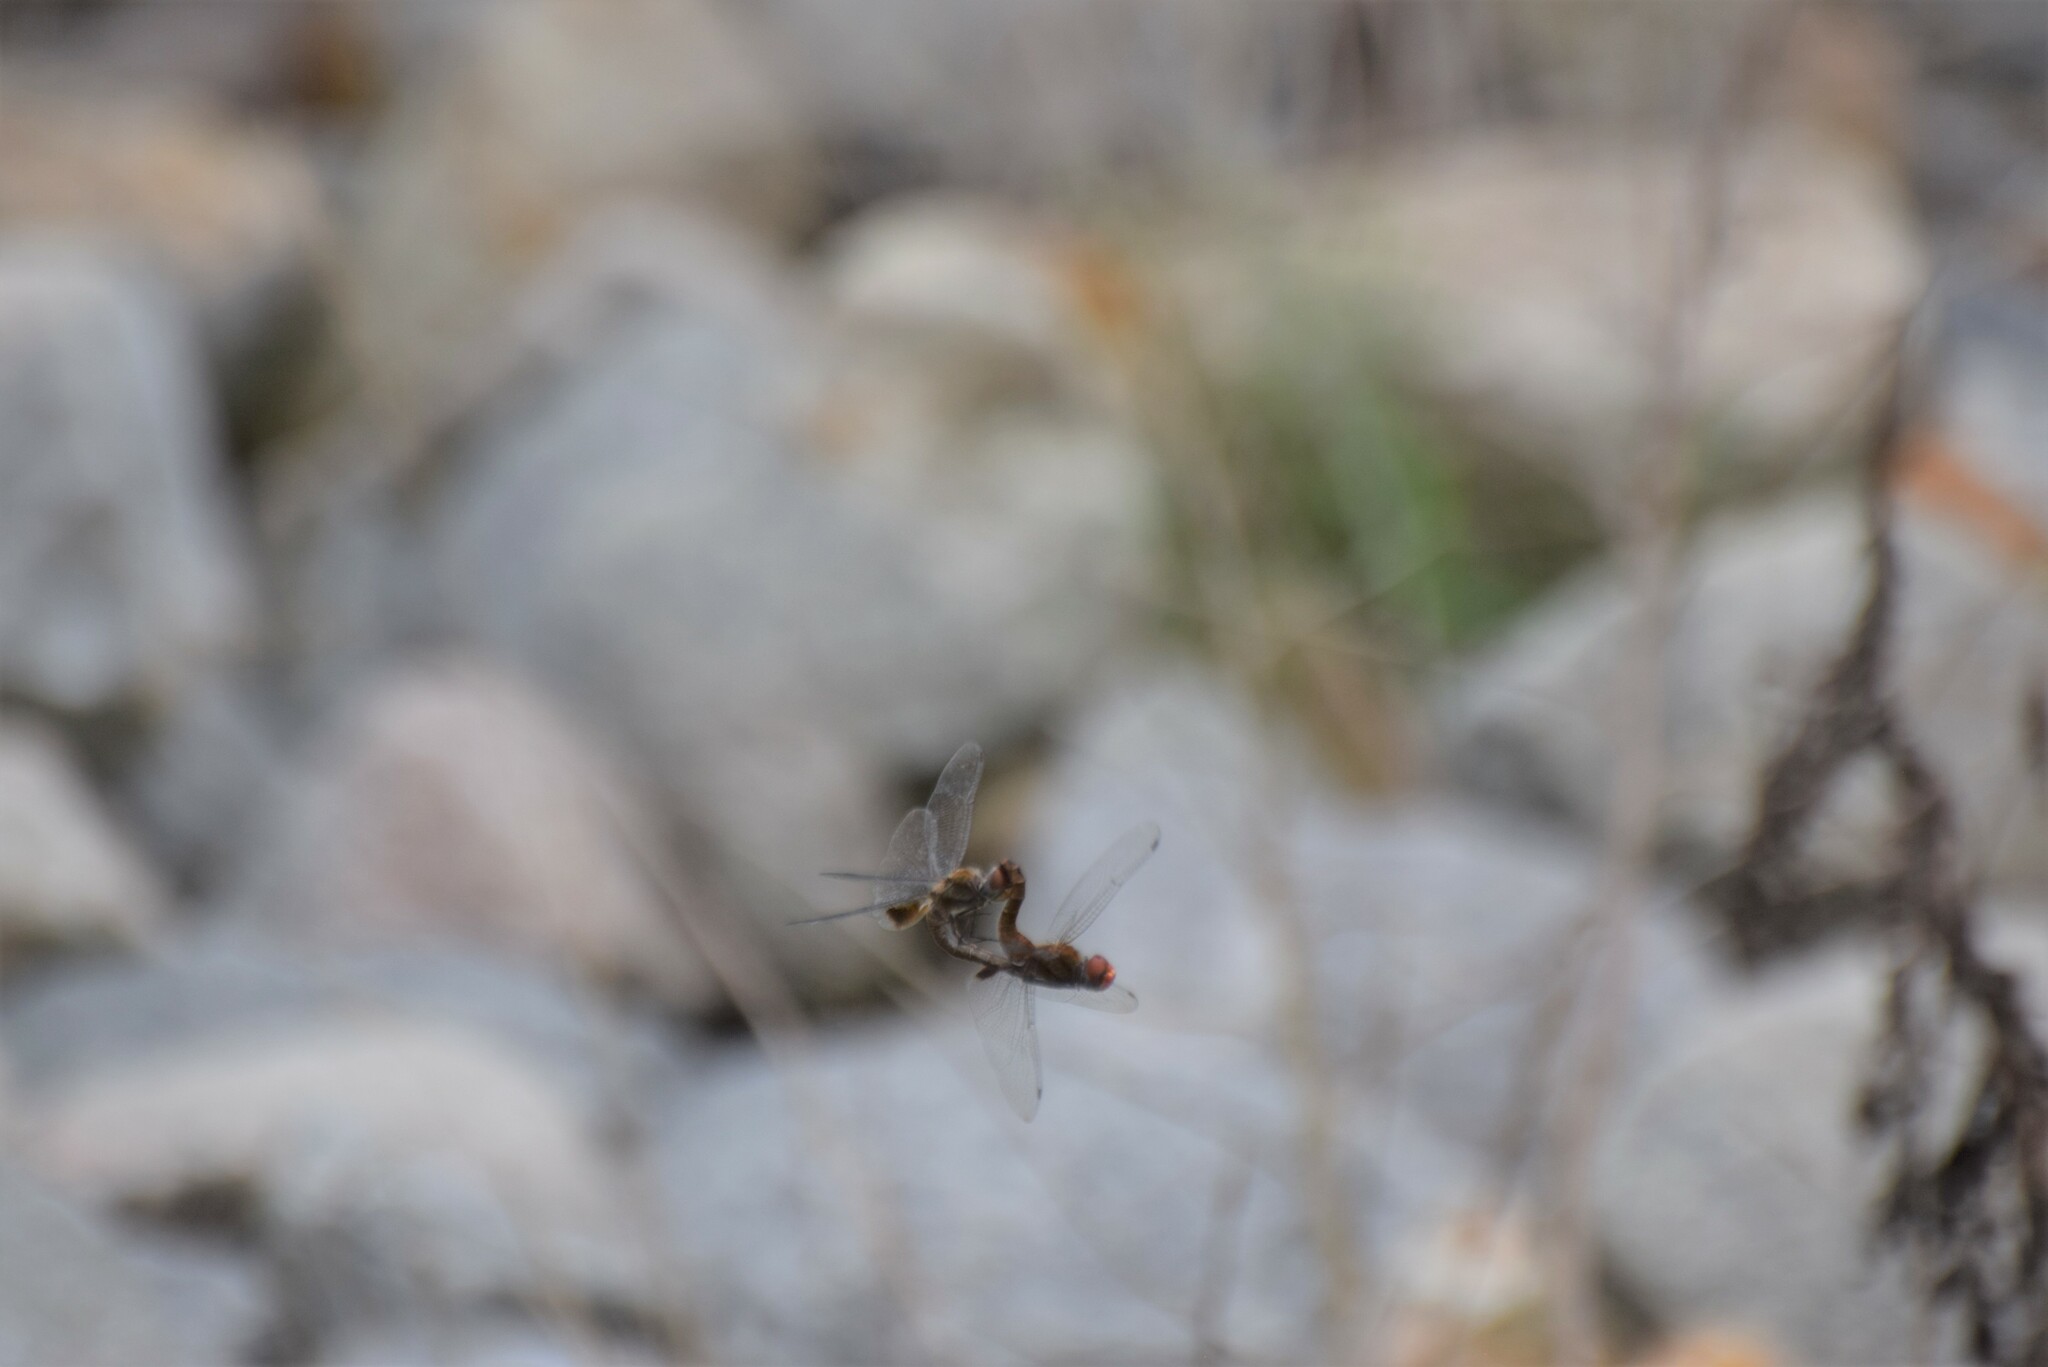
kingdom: Animalia
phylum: Arthropoda
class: Insecta
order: Odonata
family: Libellulidae
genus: Pantala
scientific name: Pantala hymenaea
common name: Spot-winged glider
